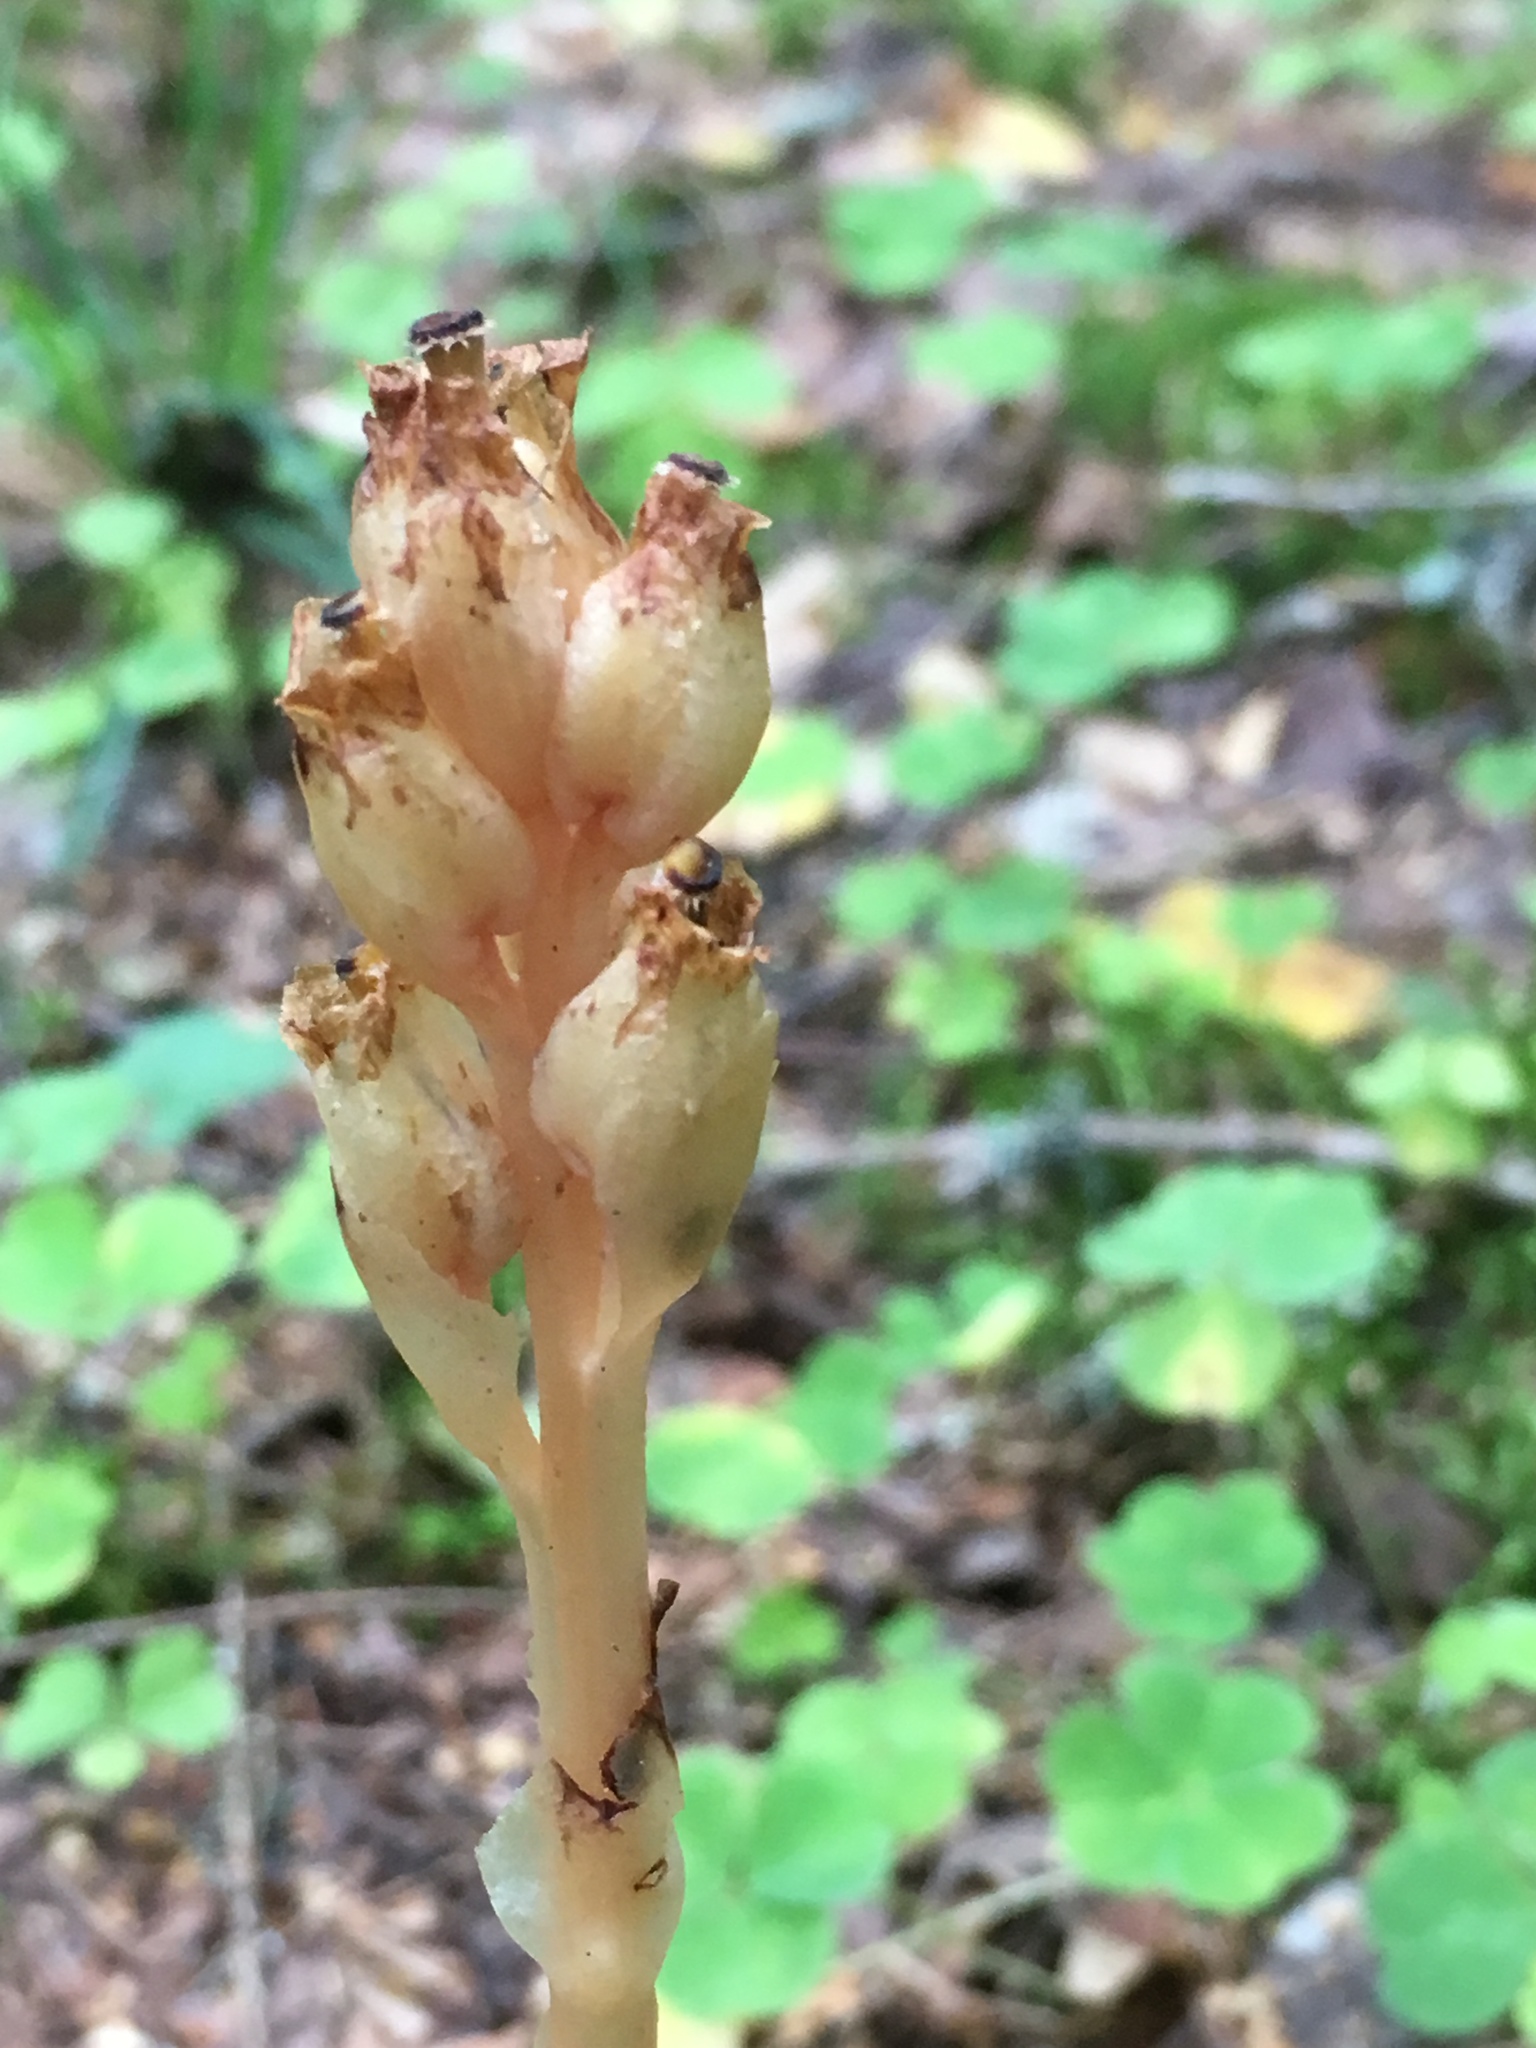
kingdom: Plantae
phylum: Tracheophyta
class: Magnoliopsida
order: Ericales
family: Ericaceae
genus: Hypopitys
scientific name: Hypopitys monotropa
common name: Yellow bird's-nest
